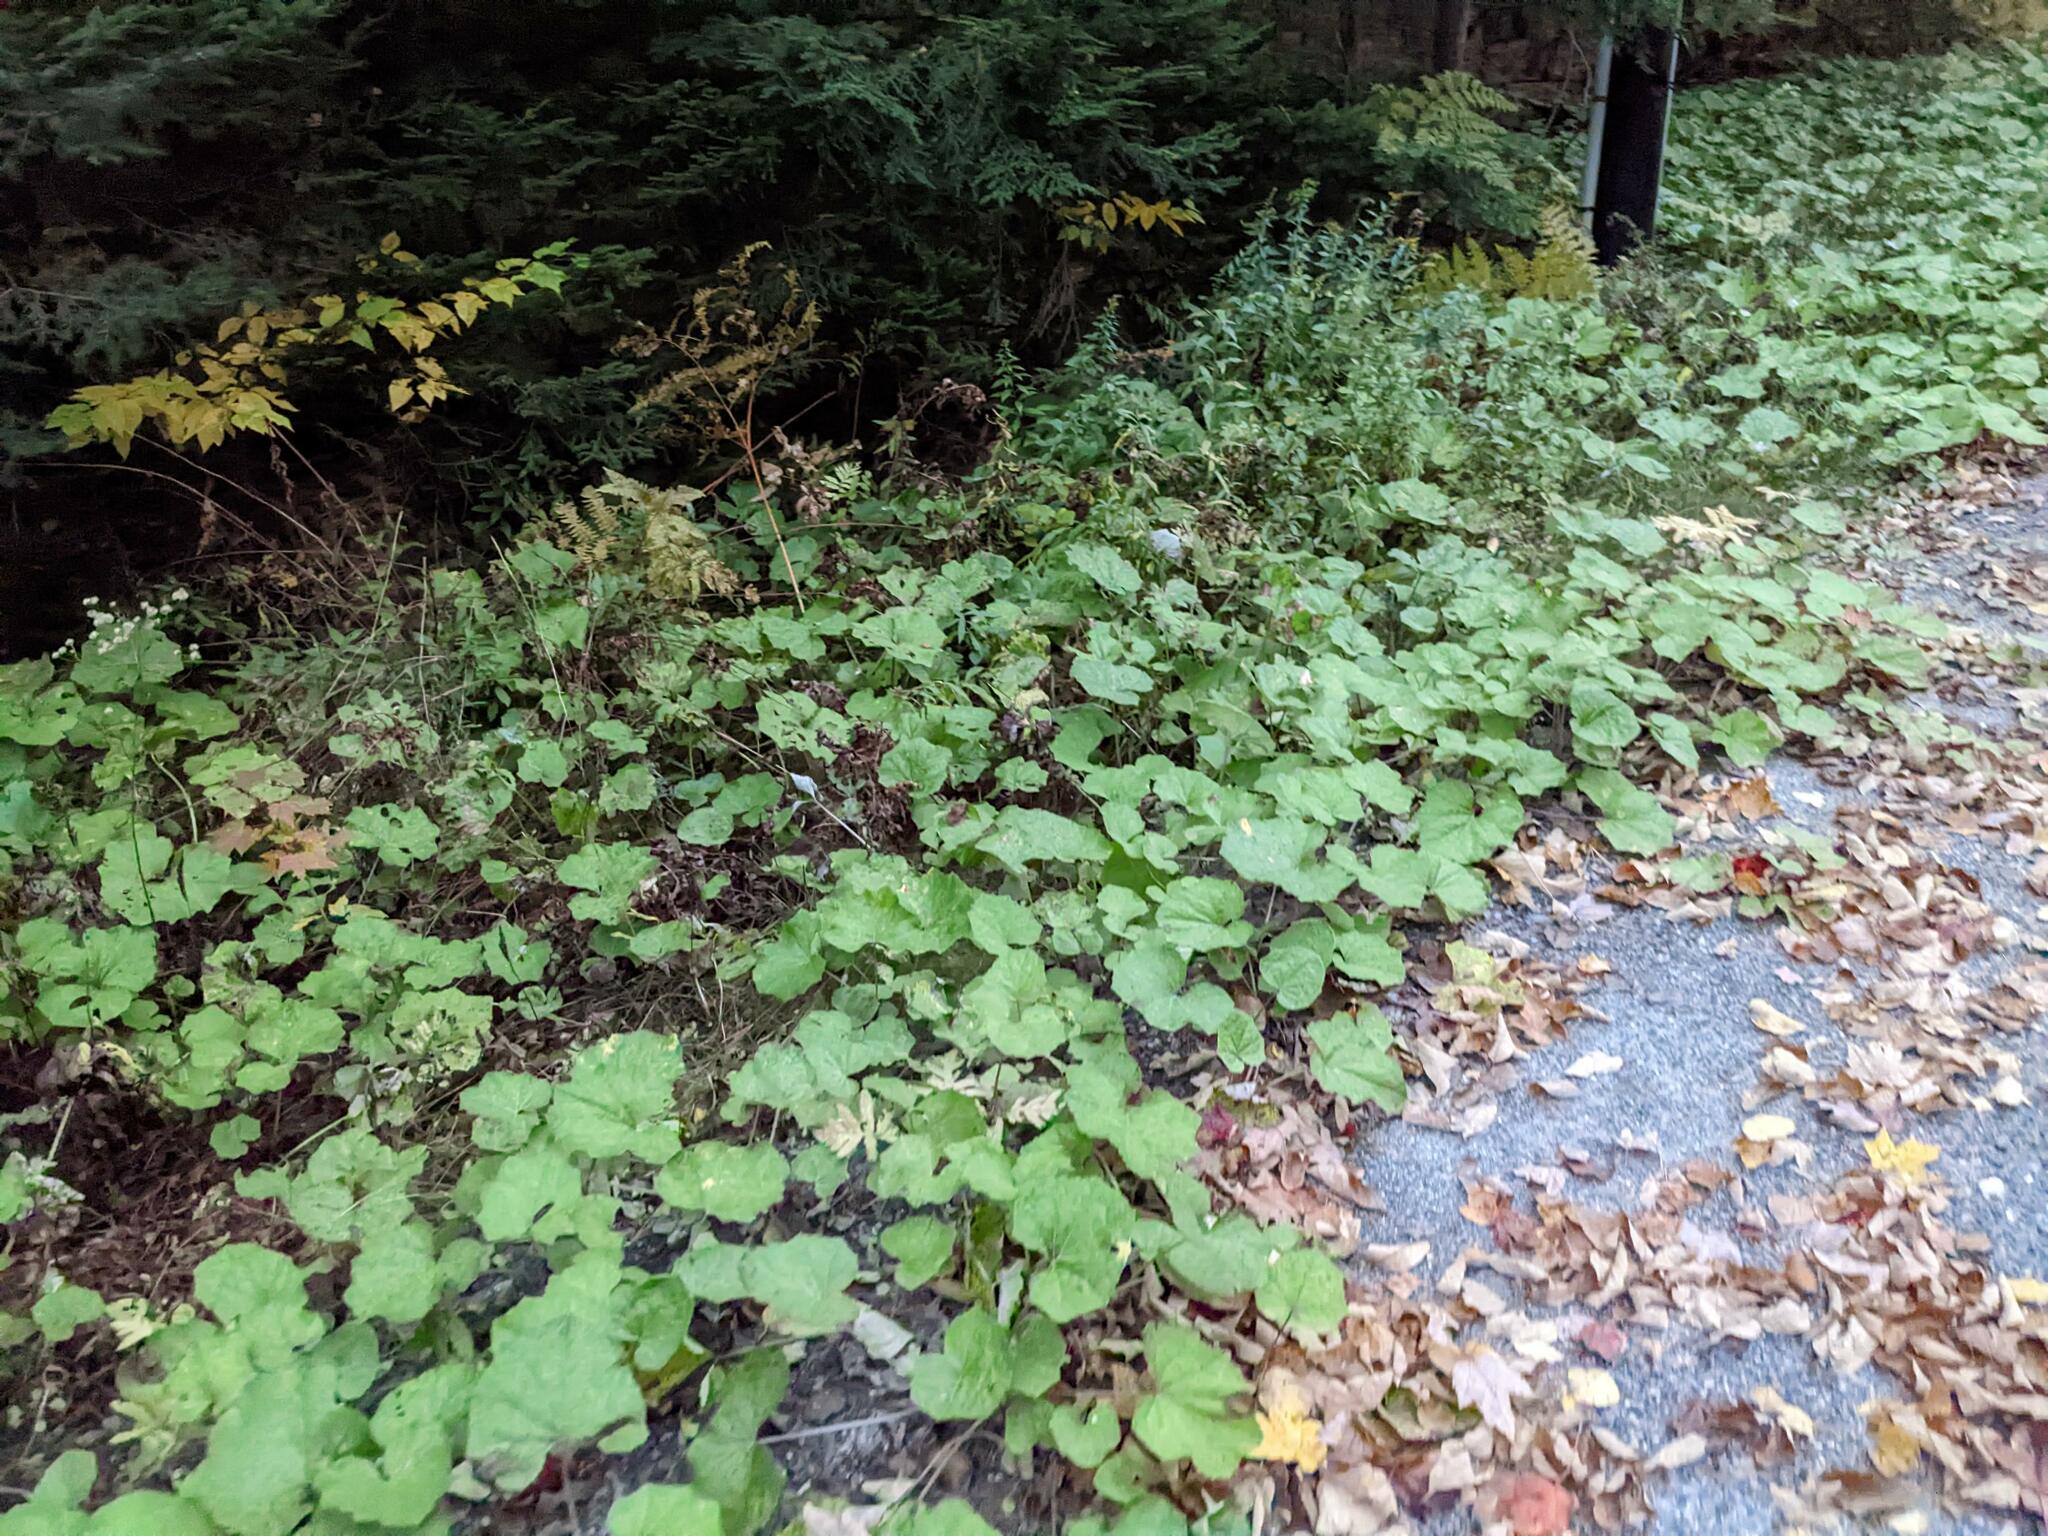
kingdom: Plantae
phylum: Tracheophyta
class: Magnoliopsida
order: Asterales
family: Asteraceae
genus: Tussilago
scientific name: Tussilago farfara
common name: Coltsfoot
